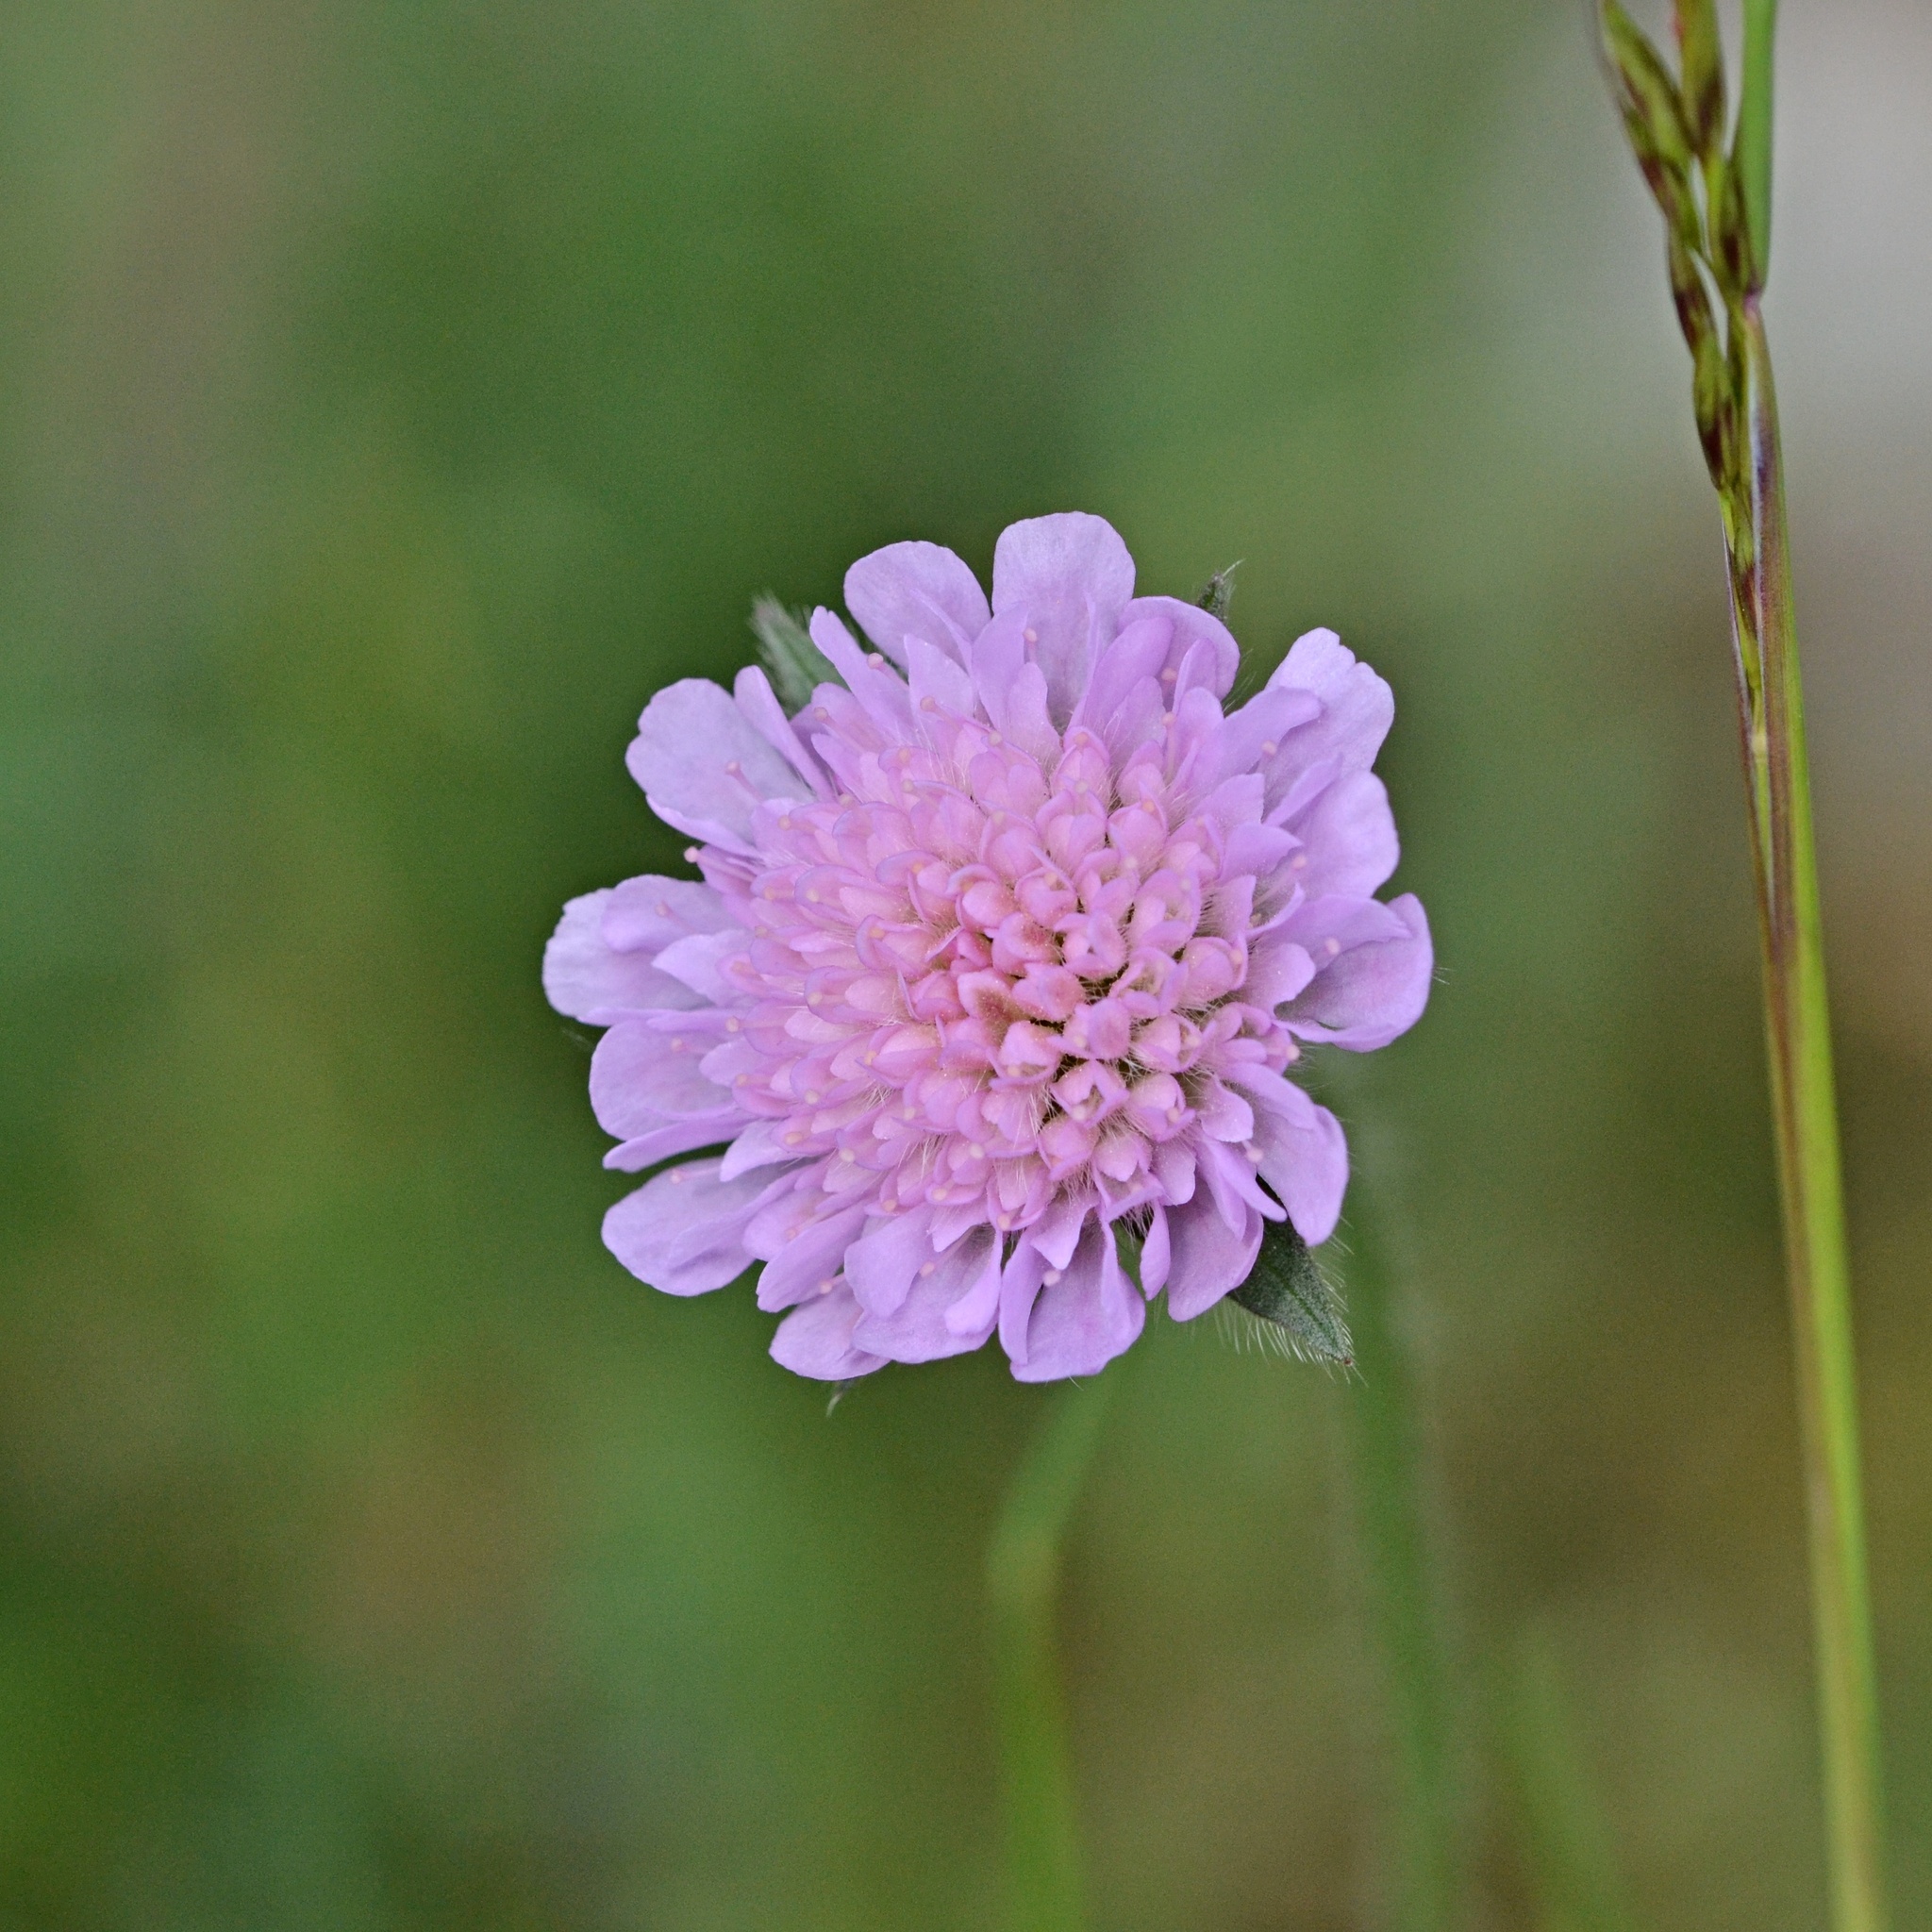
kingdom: Plantae
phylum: Tracheophyta
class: Magnoliopsida
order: Dipsacales
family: Caprifoliaceae
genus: Knautia
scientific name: Knautia arvensis
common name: Field scabiosa
